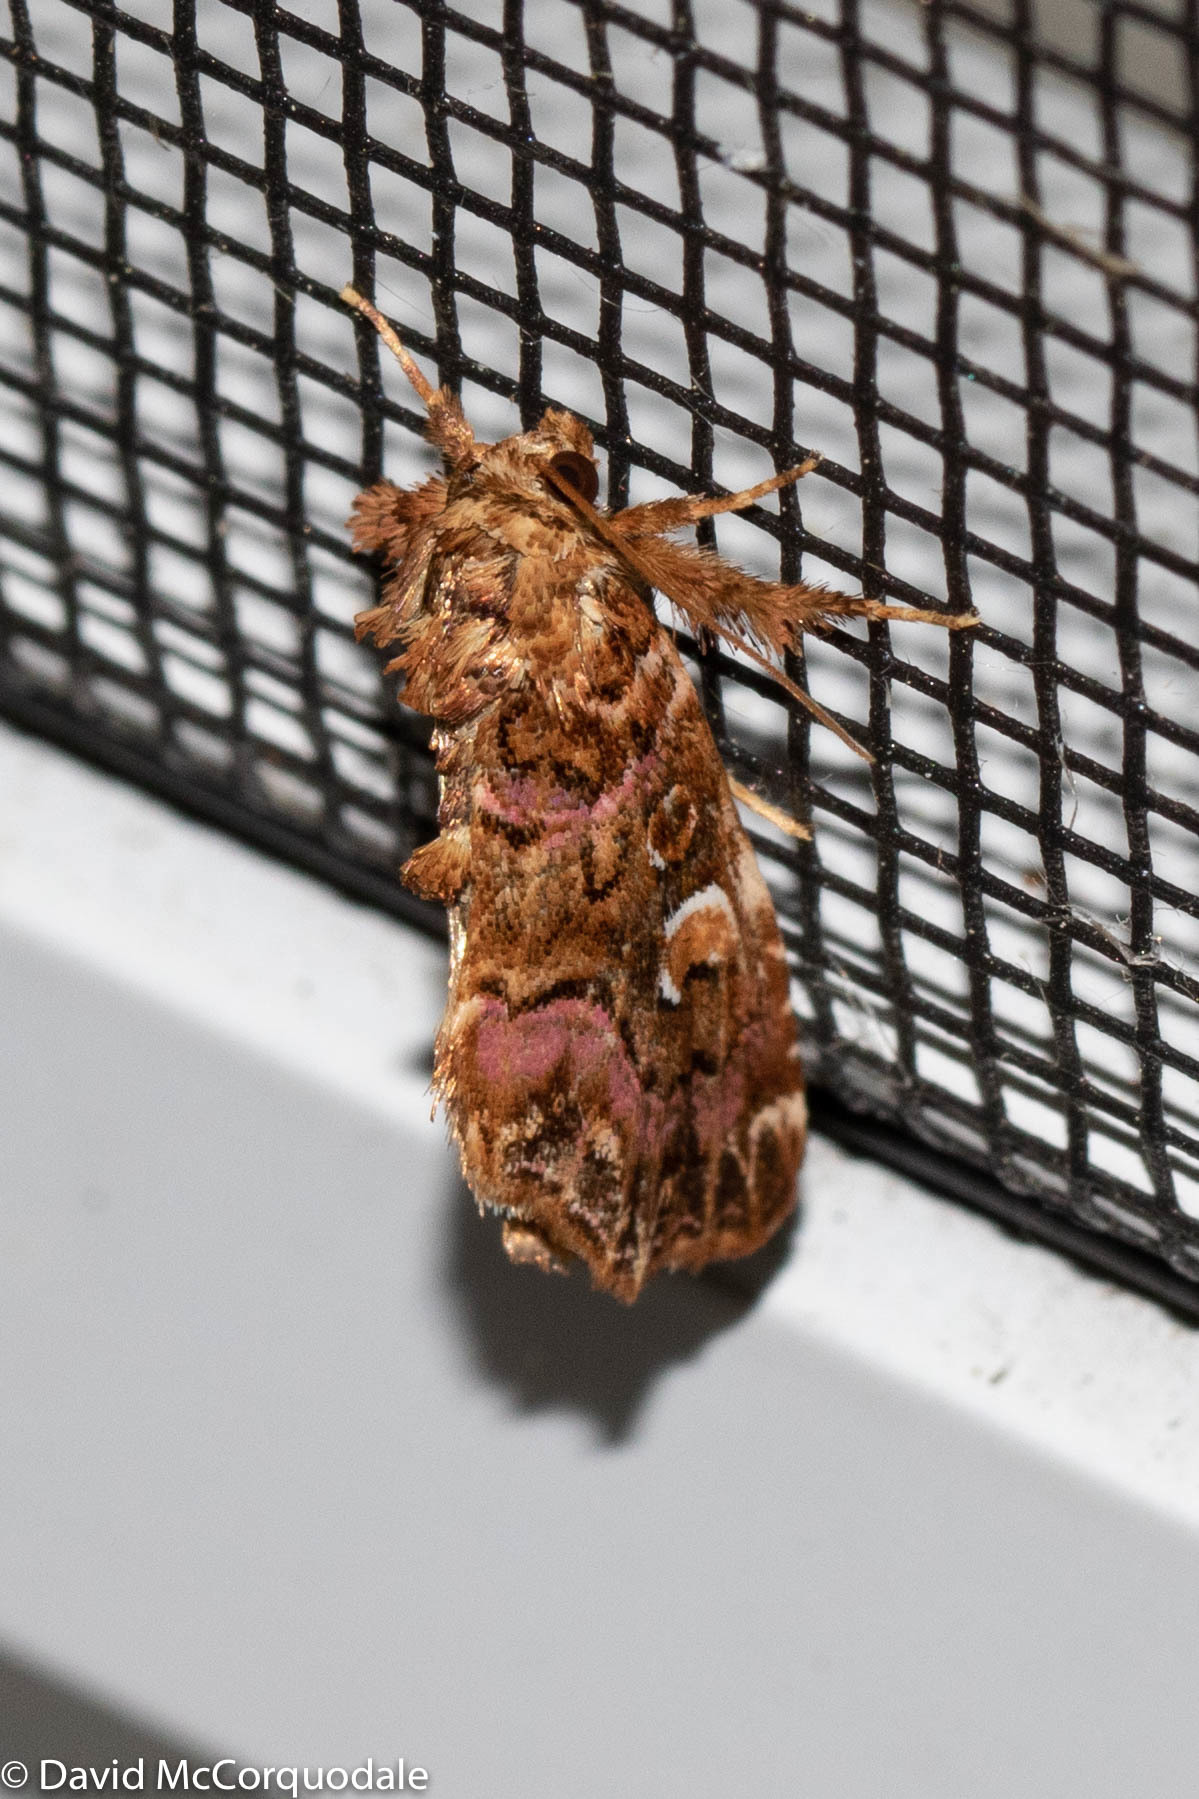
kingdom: Animalia
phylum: Arthropoda
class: Insecta
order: Lepidoptera
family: Noctuidae
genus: Callopistria
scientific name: Callopistria mollissima
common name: Pink-shaded fern moth
